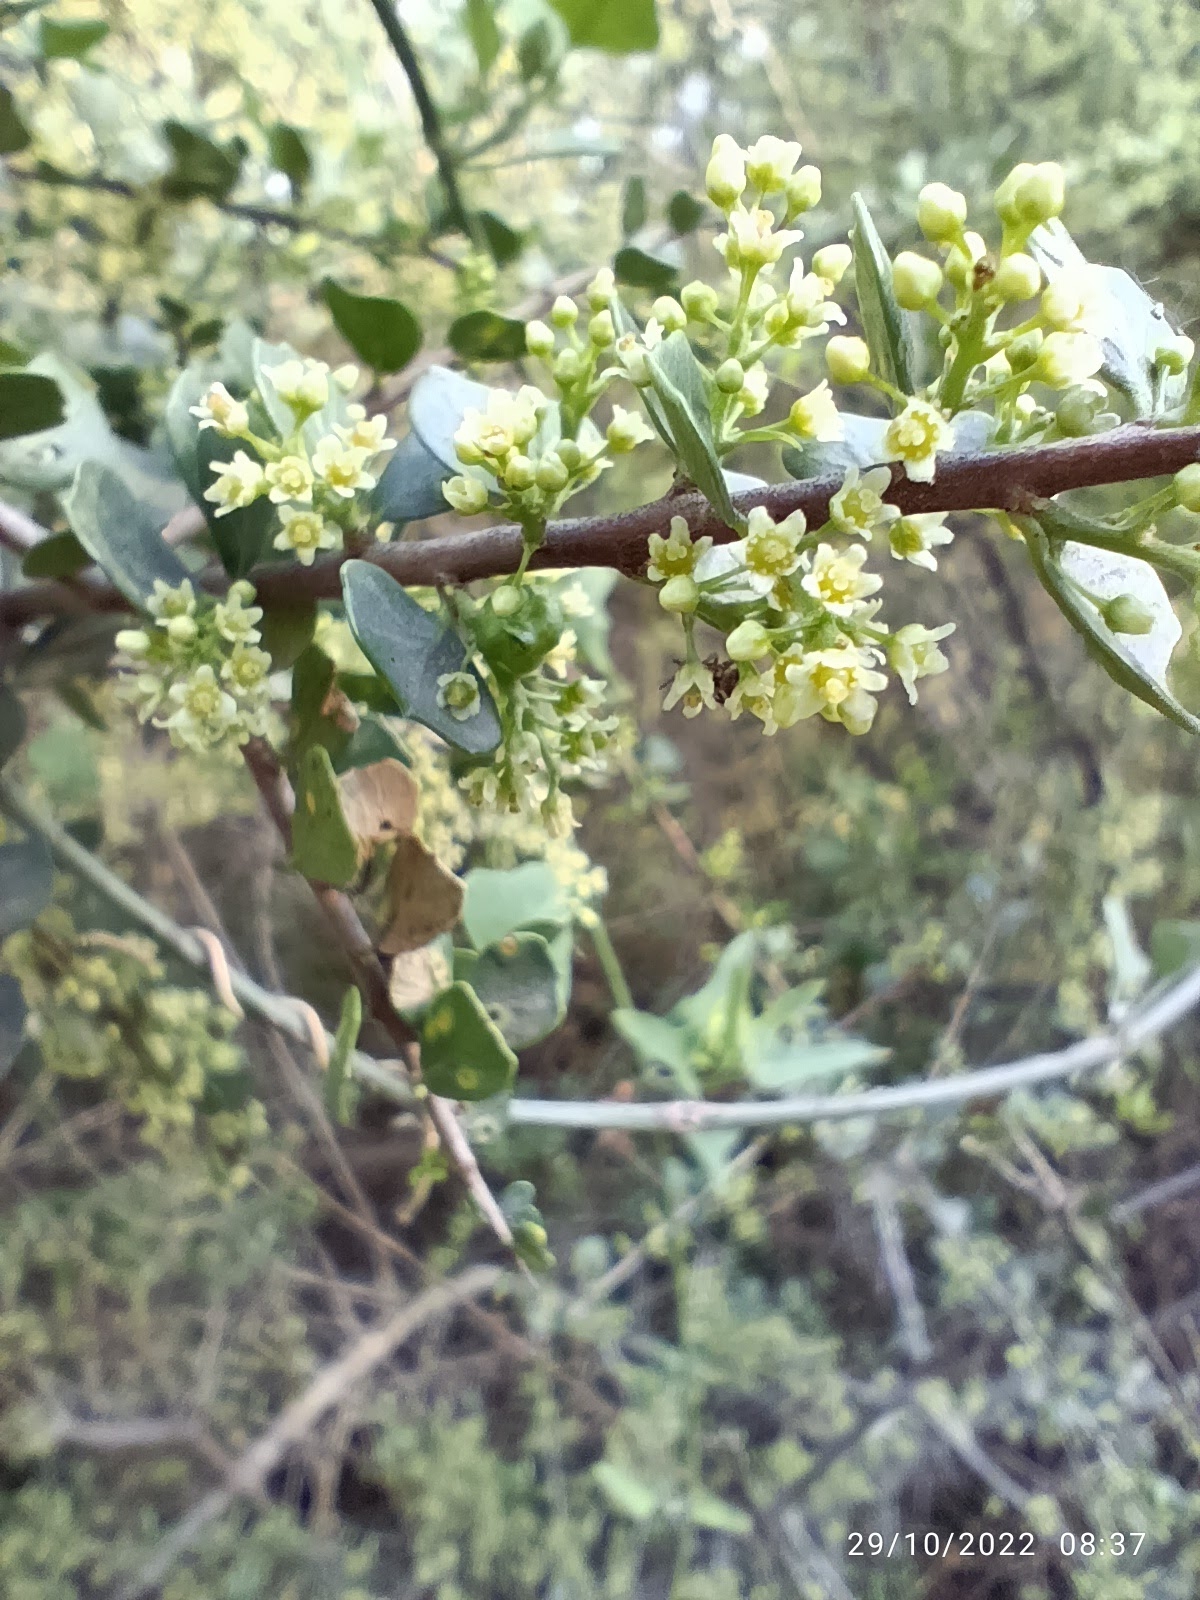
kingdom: Plantae
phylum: Tracheophyta
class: Magnoliopsida
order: Sapindales
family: Anacardiaceae
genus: Schinus
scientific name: Schinus fasciculata
